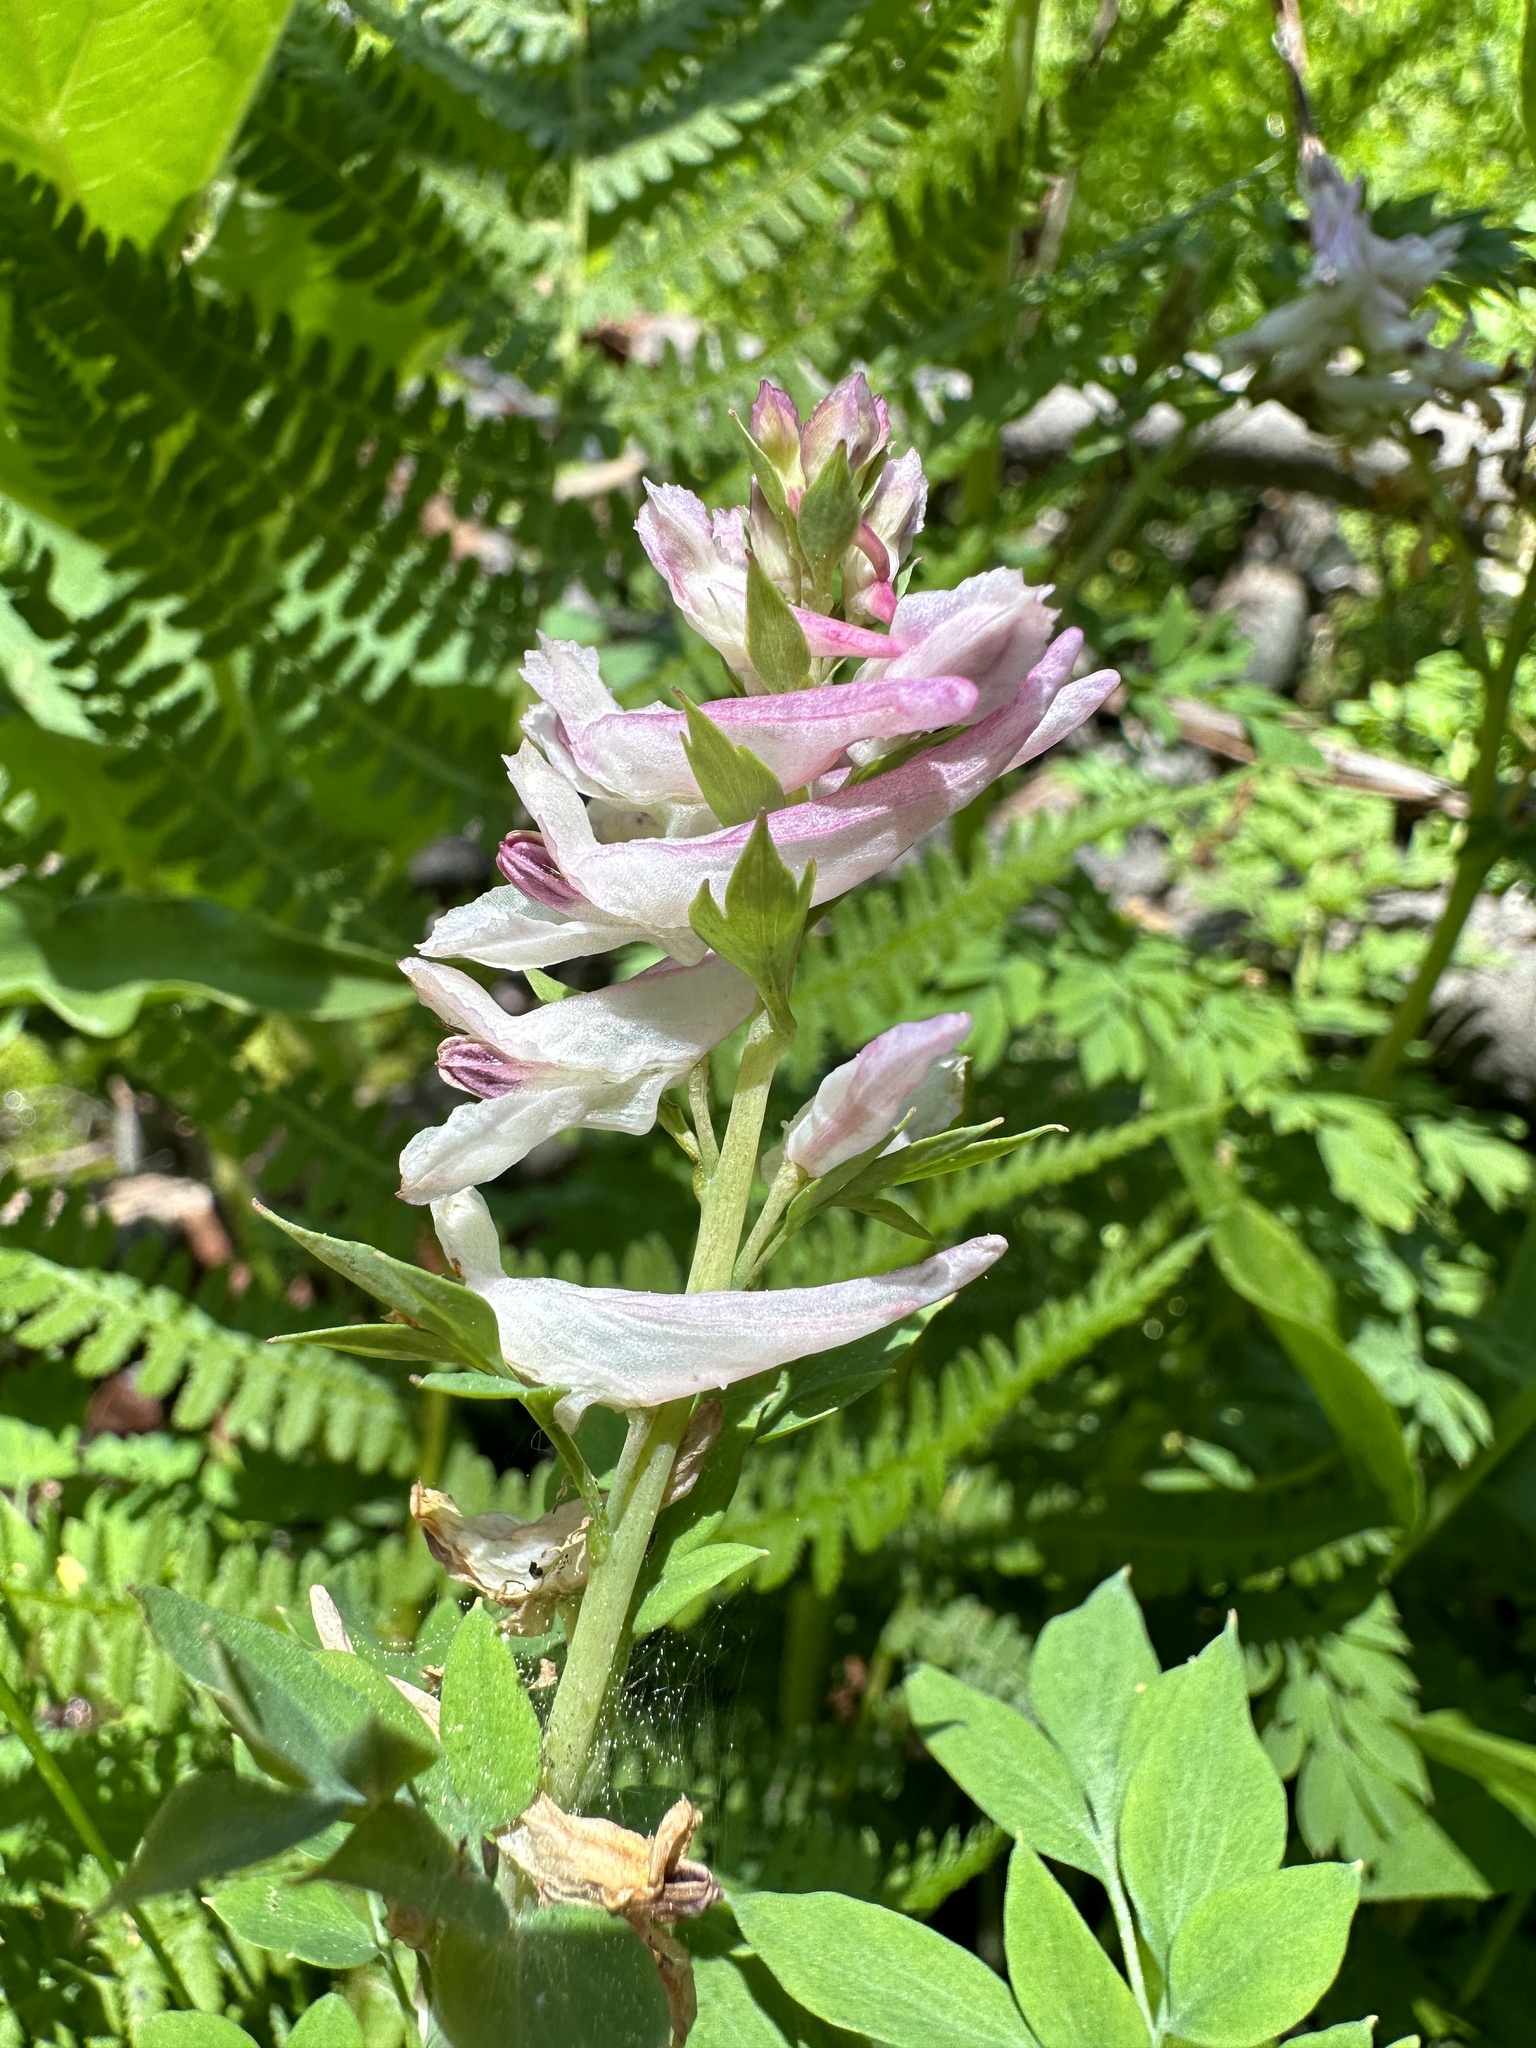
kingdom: Plantae
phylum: Tracheophyta
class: Magnoliopsida
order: Ranunculales
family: Papaveraceae
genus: Corydalis
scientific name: Corydalis caseana
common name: Fitweed
